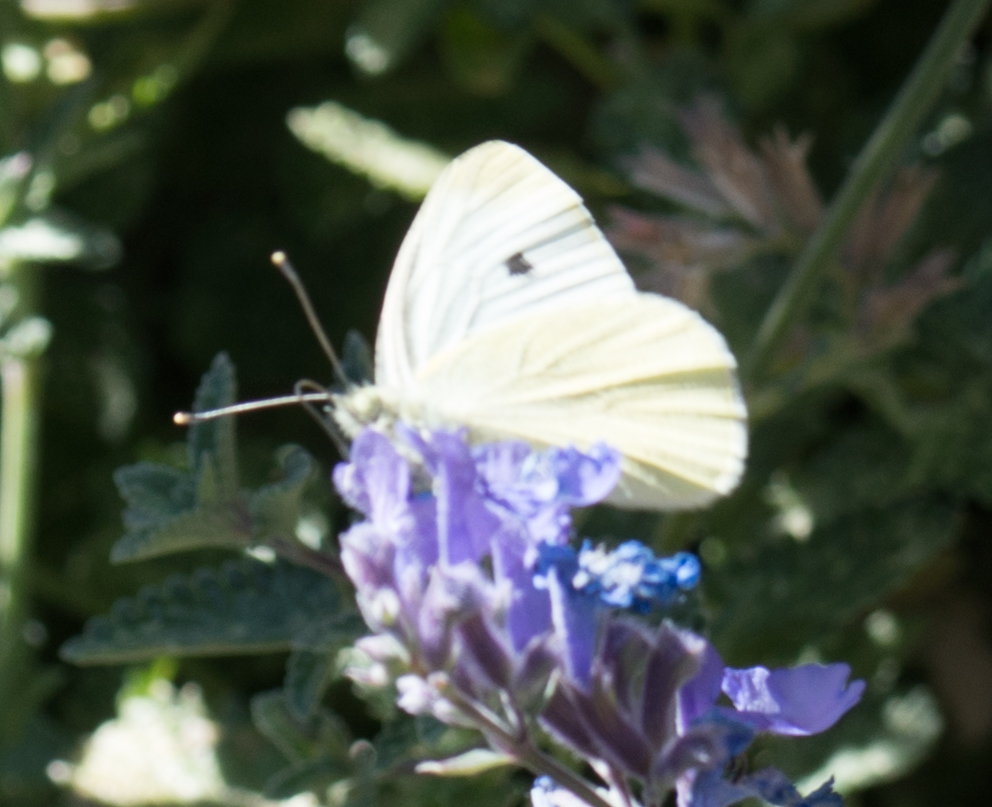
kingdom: Animalia
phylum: Arthropoda
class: Insecta
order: Lepidoptera
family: Pieridae
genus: Pieris
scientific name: Pieris rapae
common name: Small white
